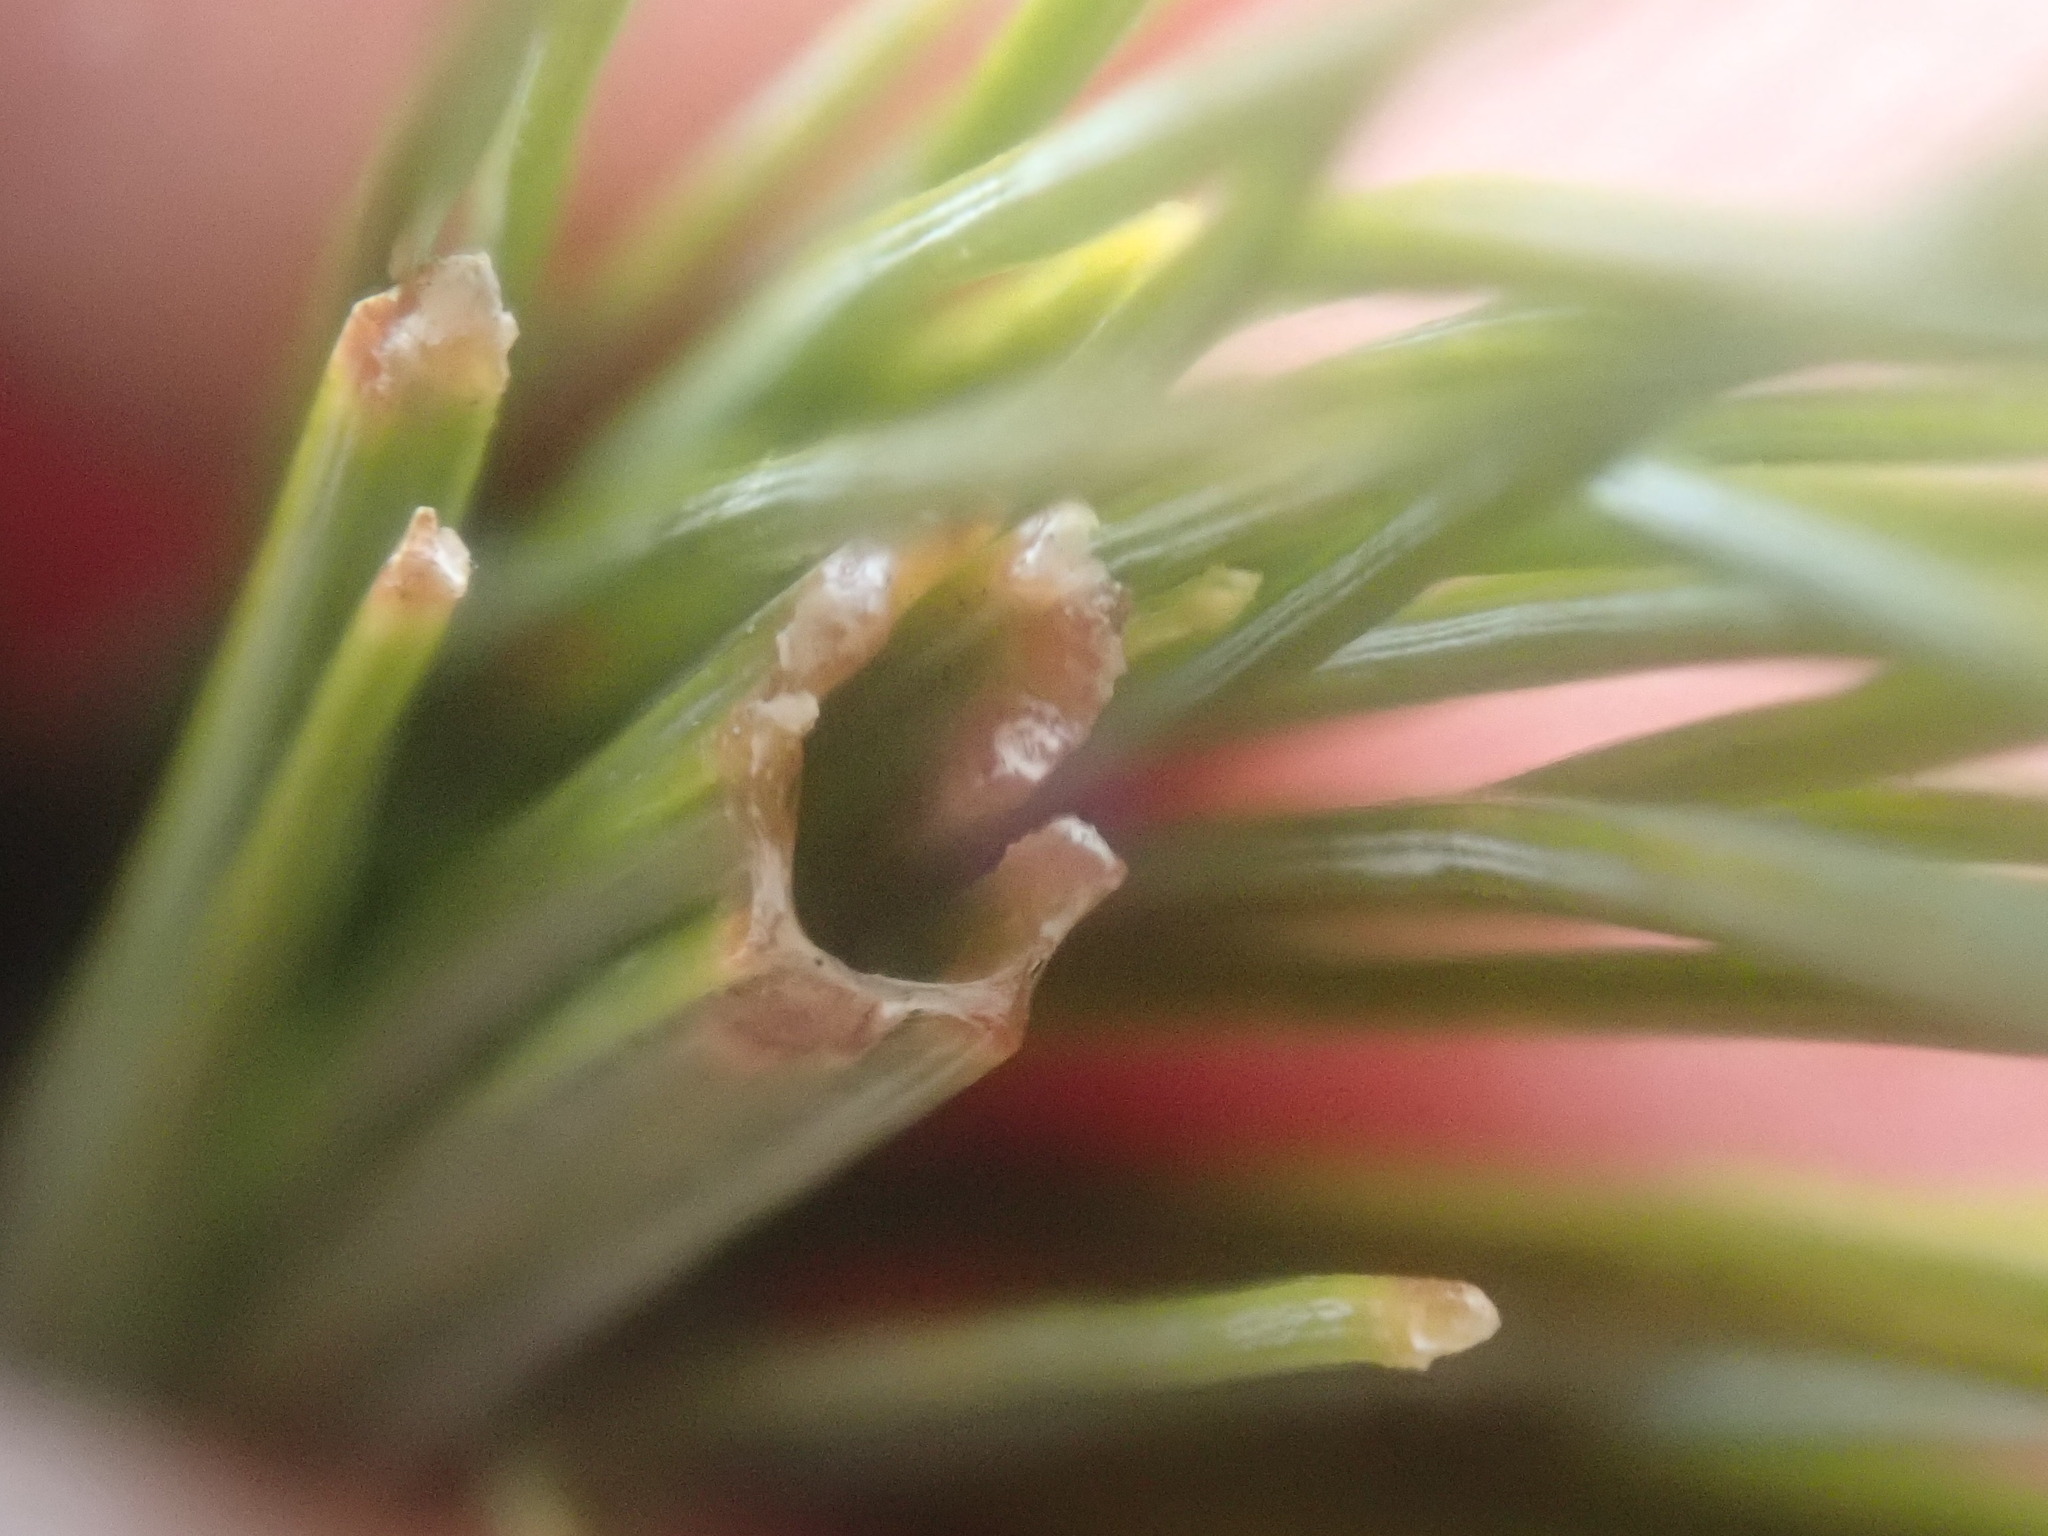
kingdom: Animalia
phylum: Arthropoda
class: Insecta
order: Lepidoptera
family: Tortricidae
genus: Argyrotaenia
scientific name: Argyrotaenia pinatubana
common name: Pine tube moth
